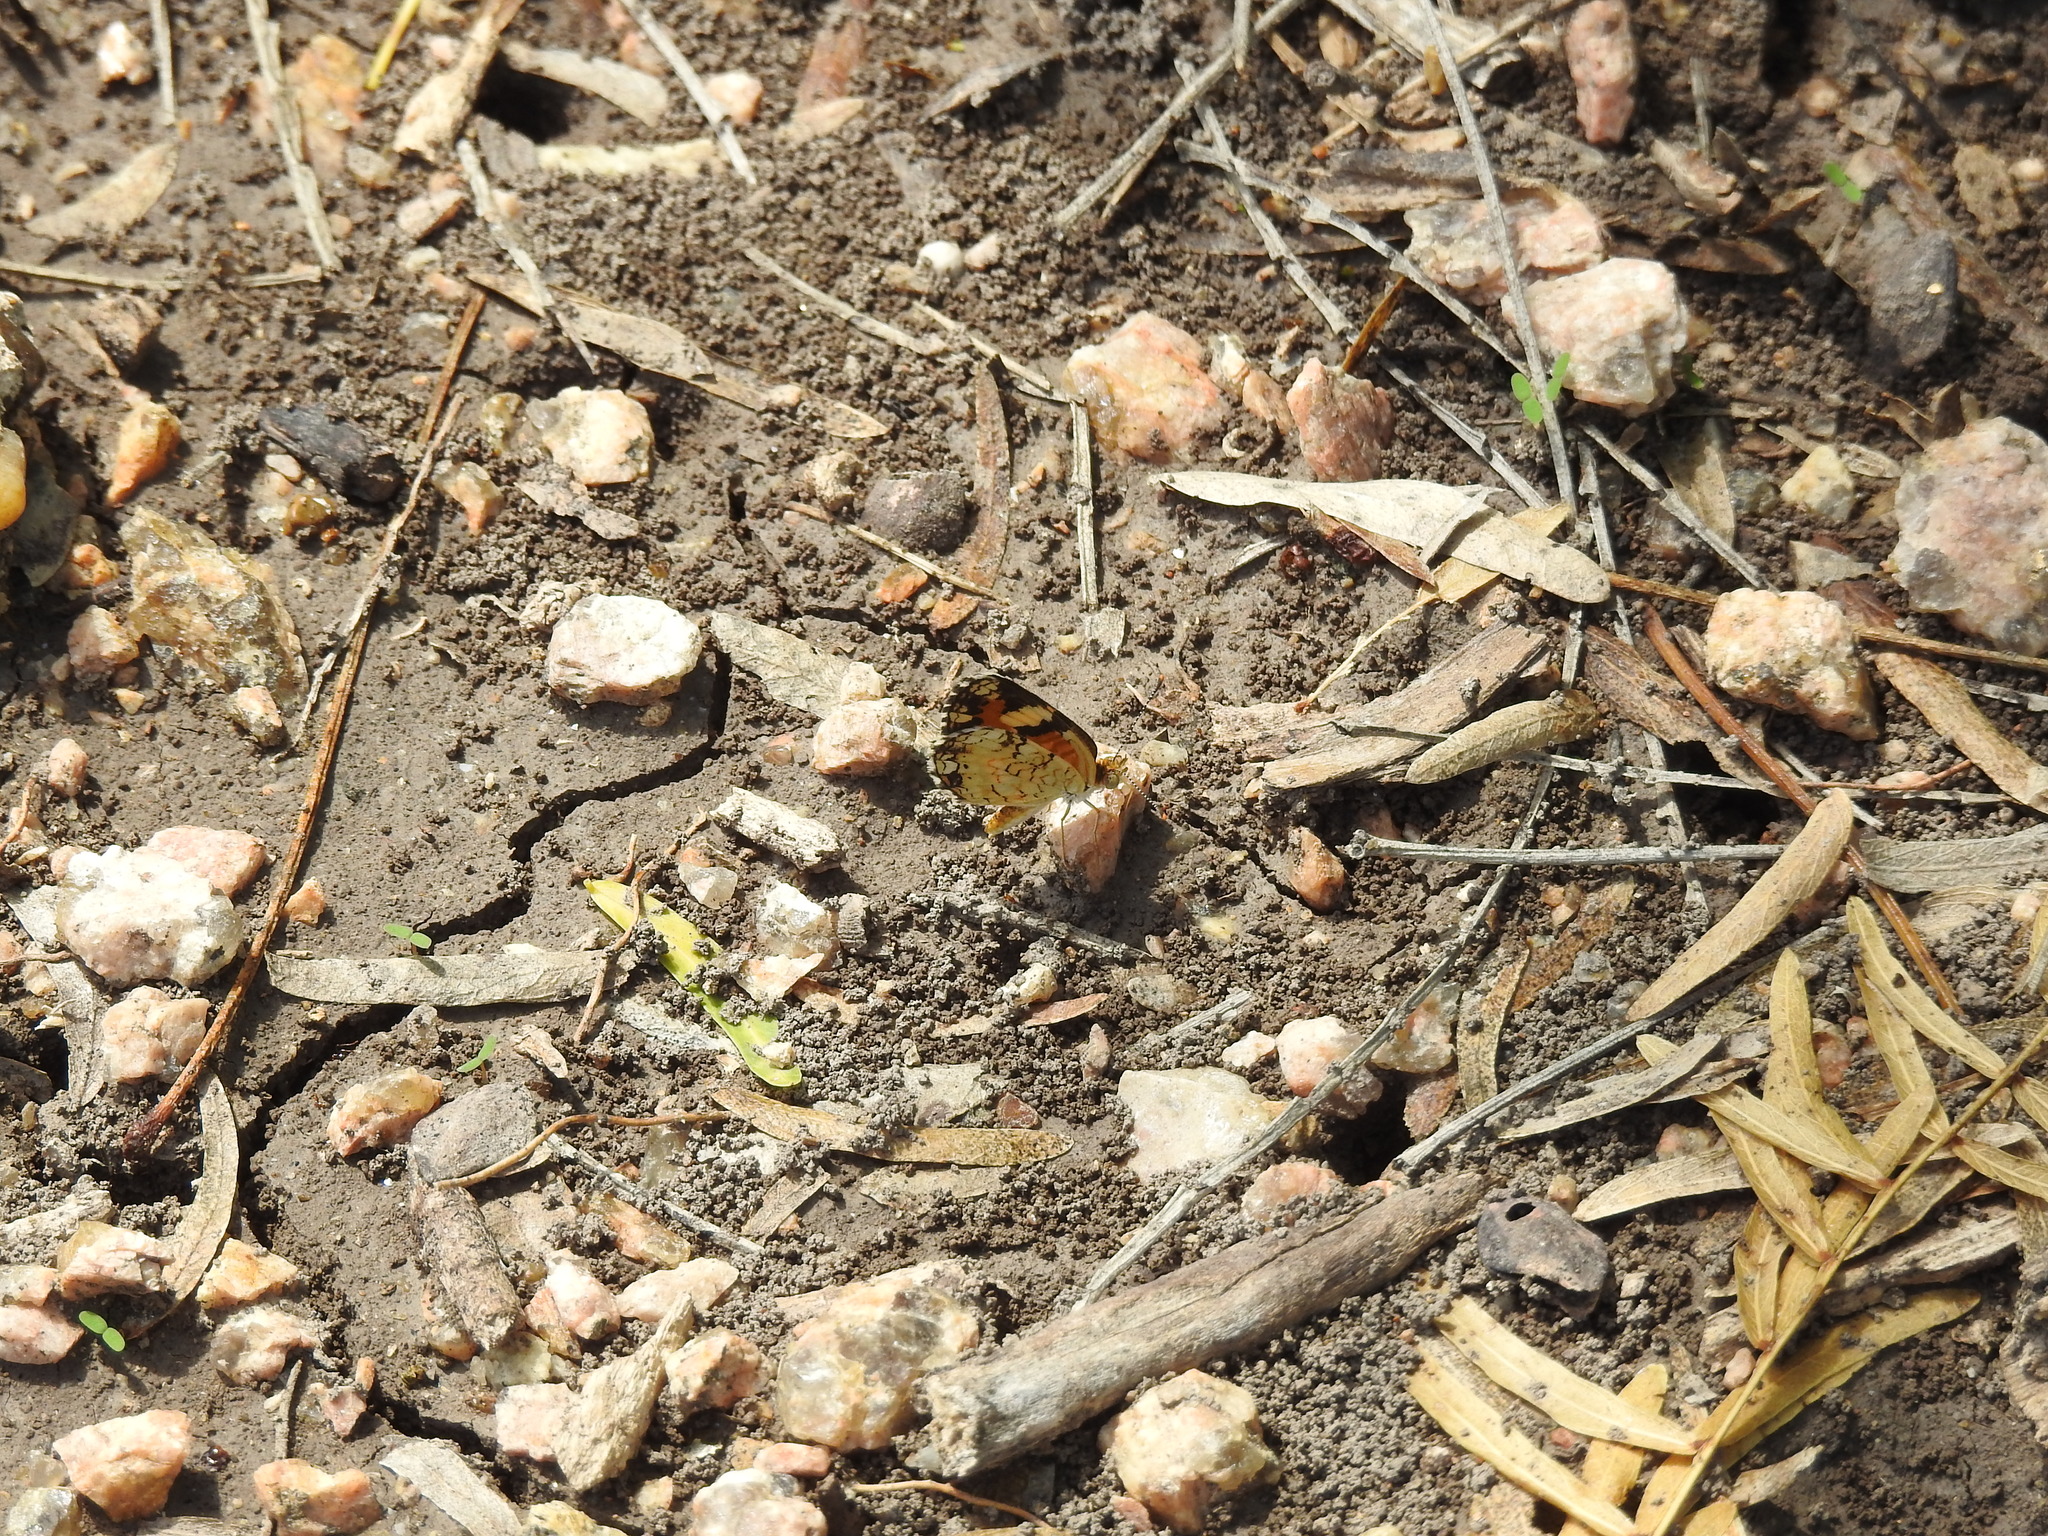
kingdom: Animalia
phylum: Arthropoda
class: Insecta
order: Lepidoptera
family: Nymphalidae
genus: Phyciodes
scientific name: Phyciodes phaon
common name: Phaon crescent
